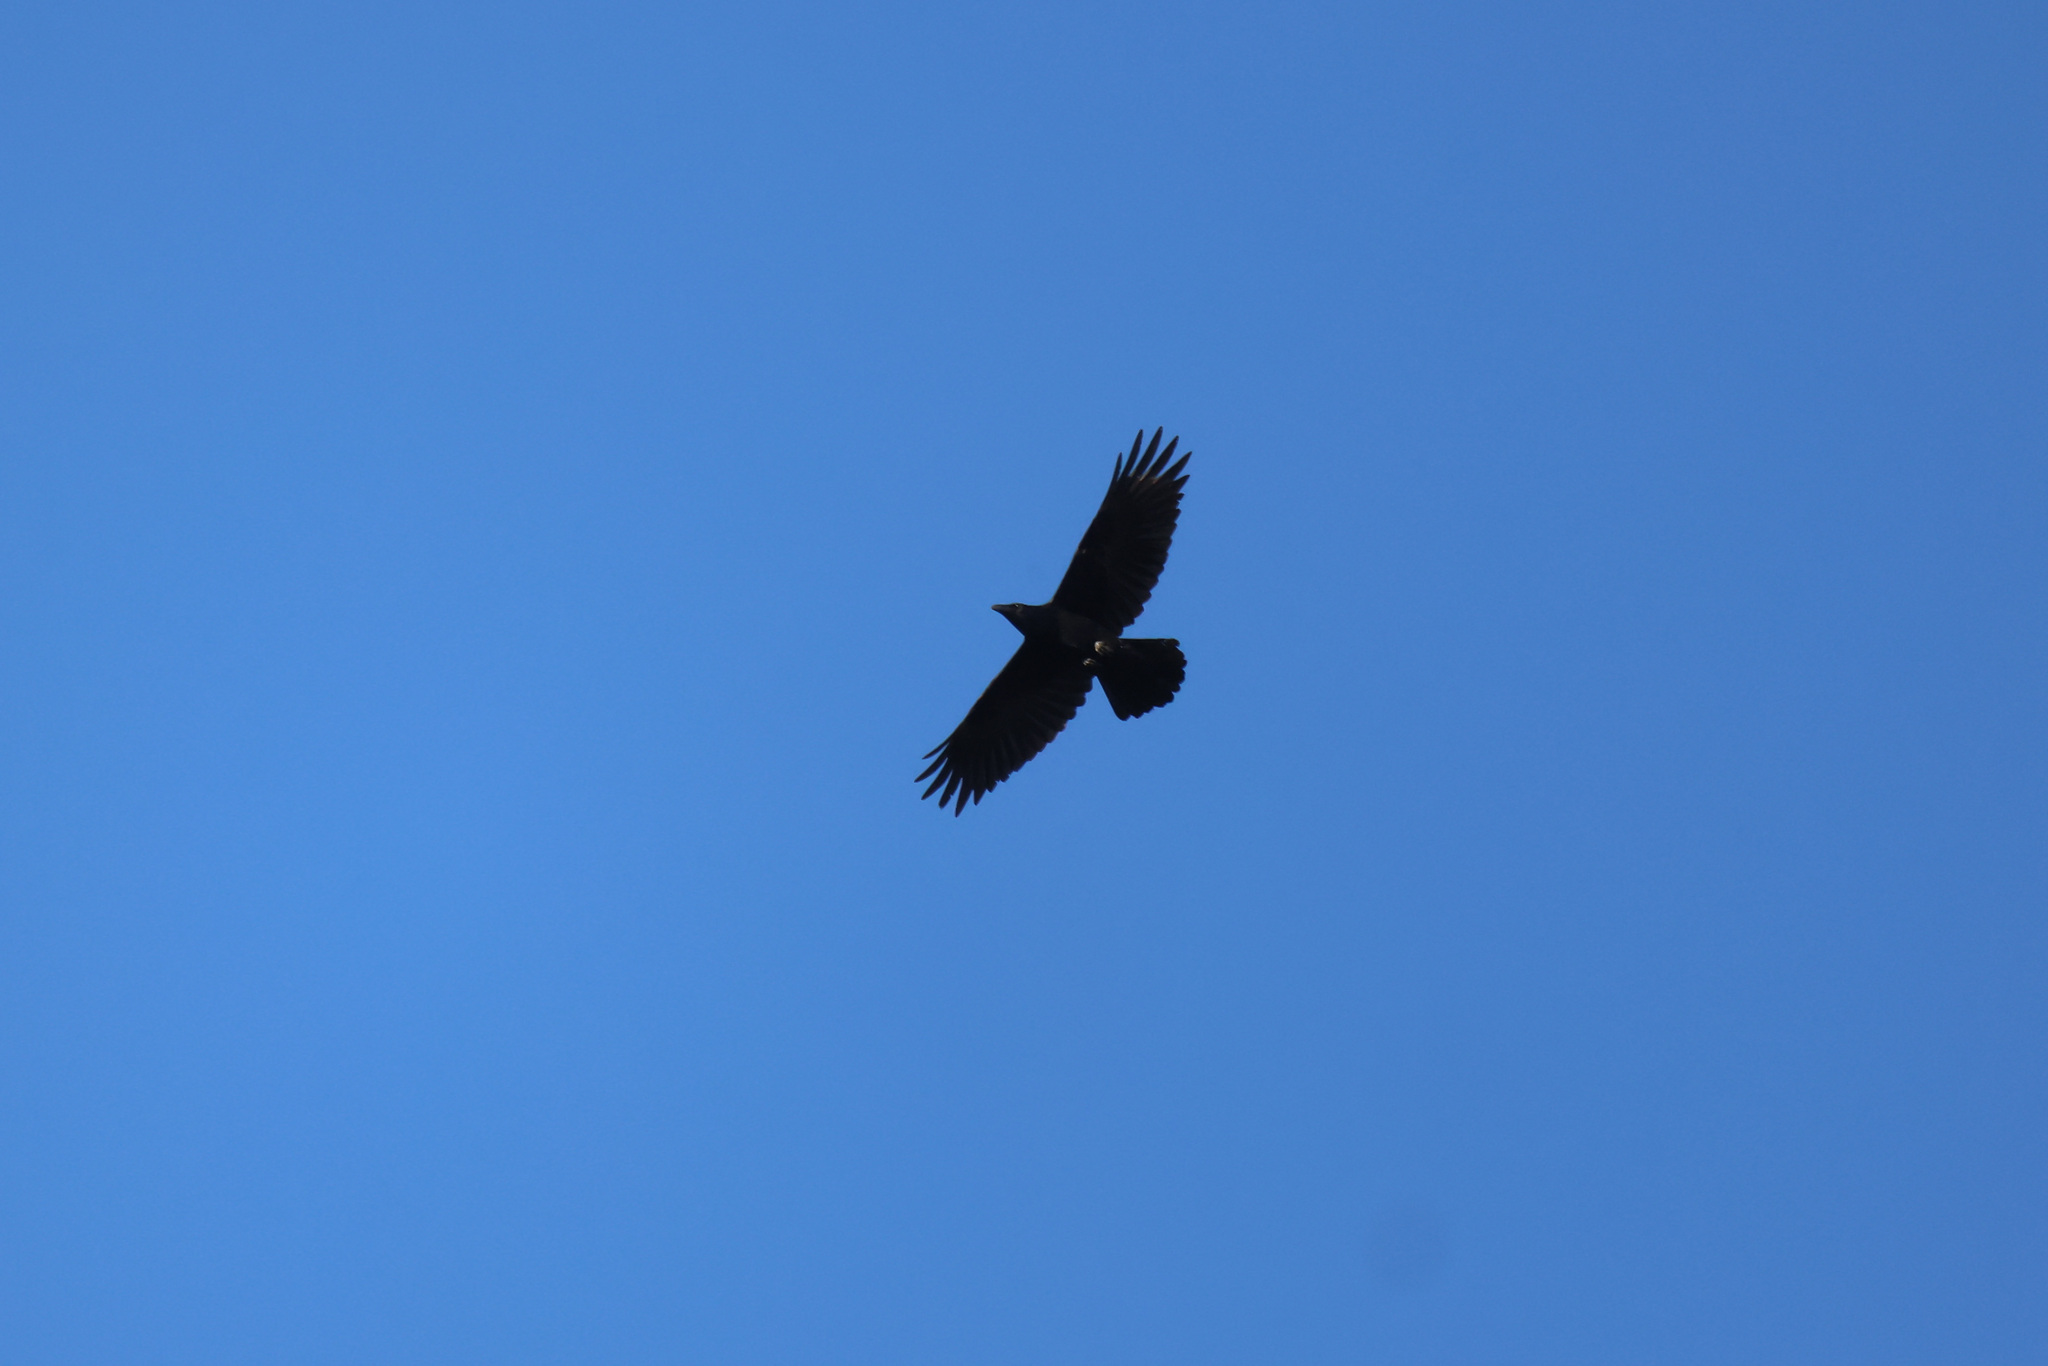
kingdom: Animalia
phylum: Chordata
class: Aves
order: Passeriformes
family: Corvidae
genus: Corvus
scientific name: Corvus corax
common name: Common raven
